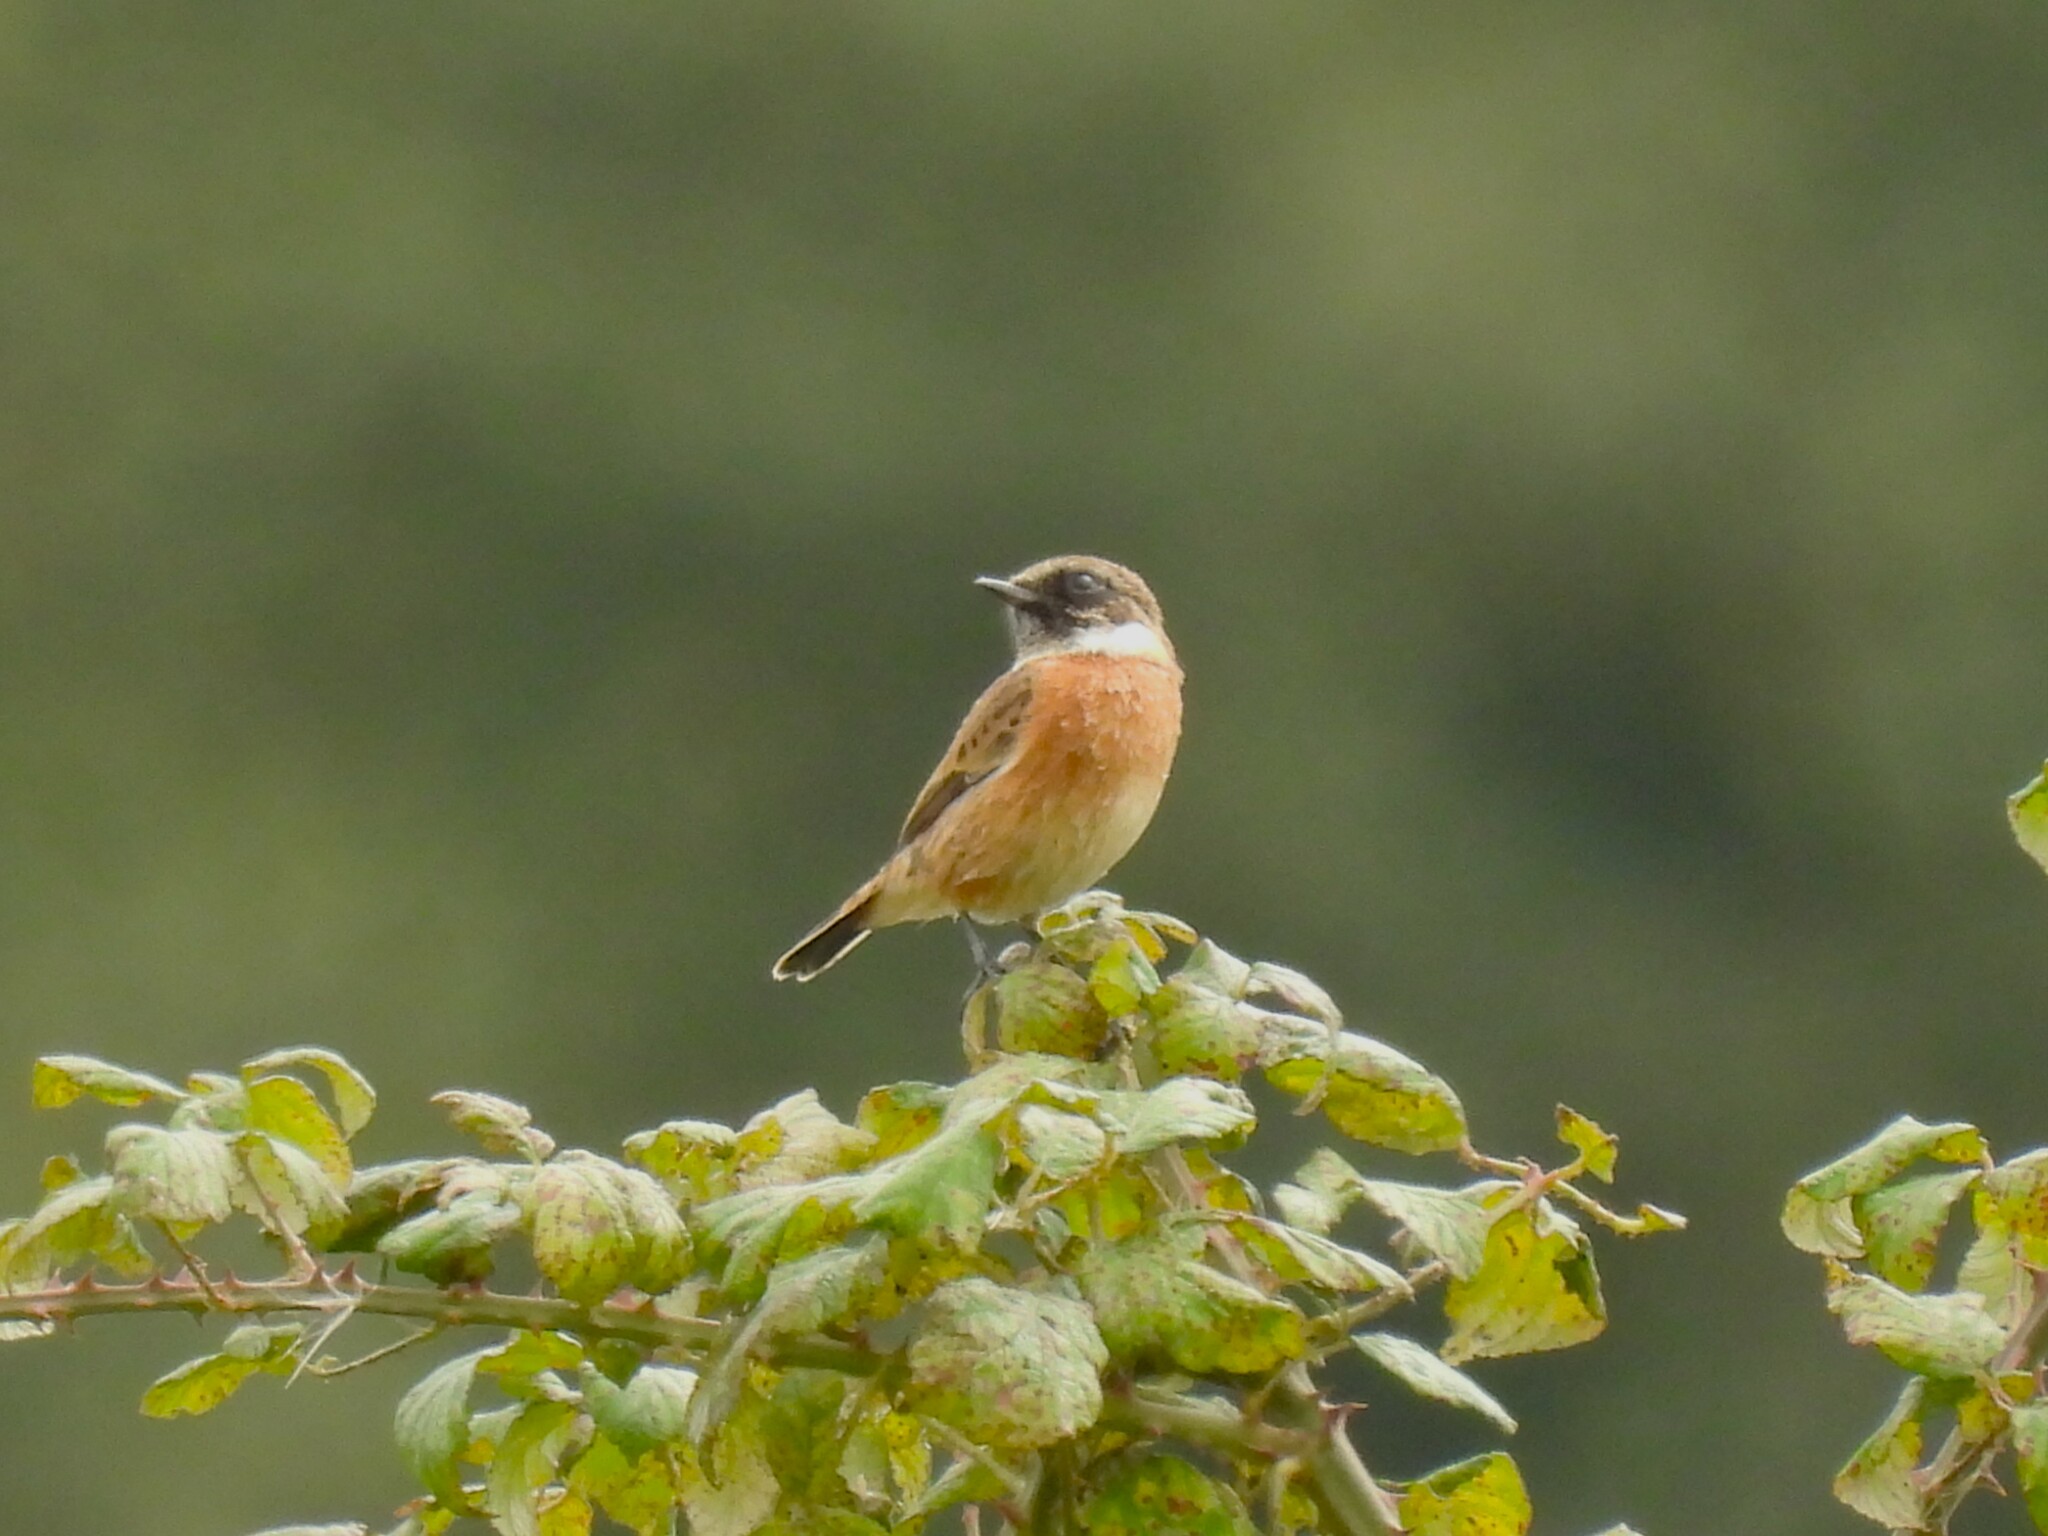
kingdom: Animalia
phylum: Chordata
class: Aves
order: Passeriformes
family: Muscicapidae
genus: Saxicola
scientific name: Saxicola rubicola
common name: European stonechat
